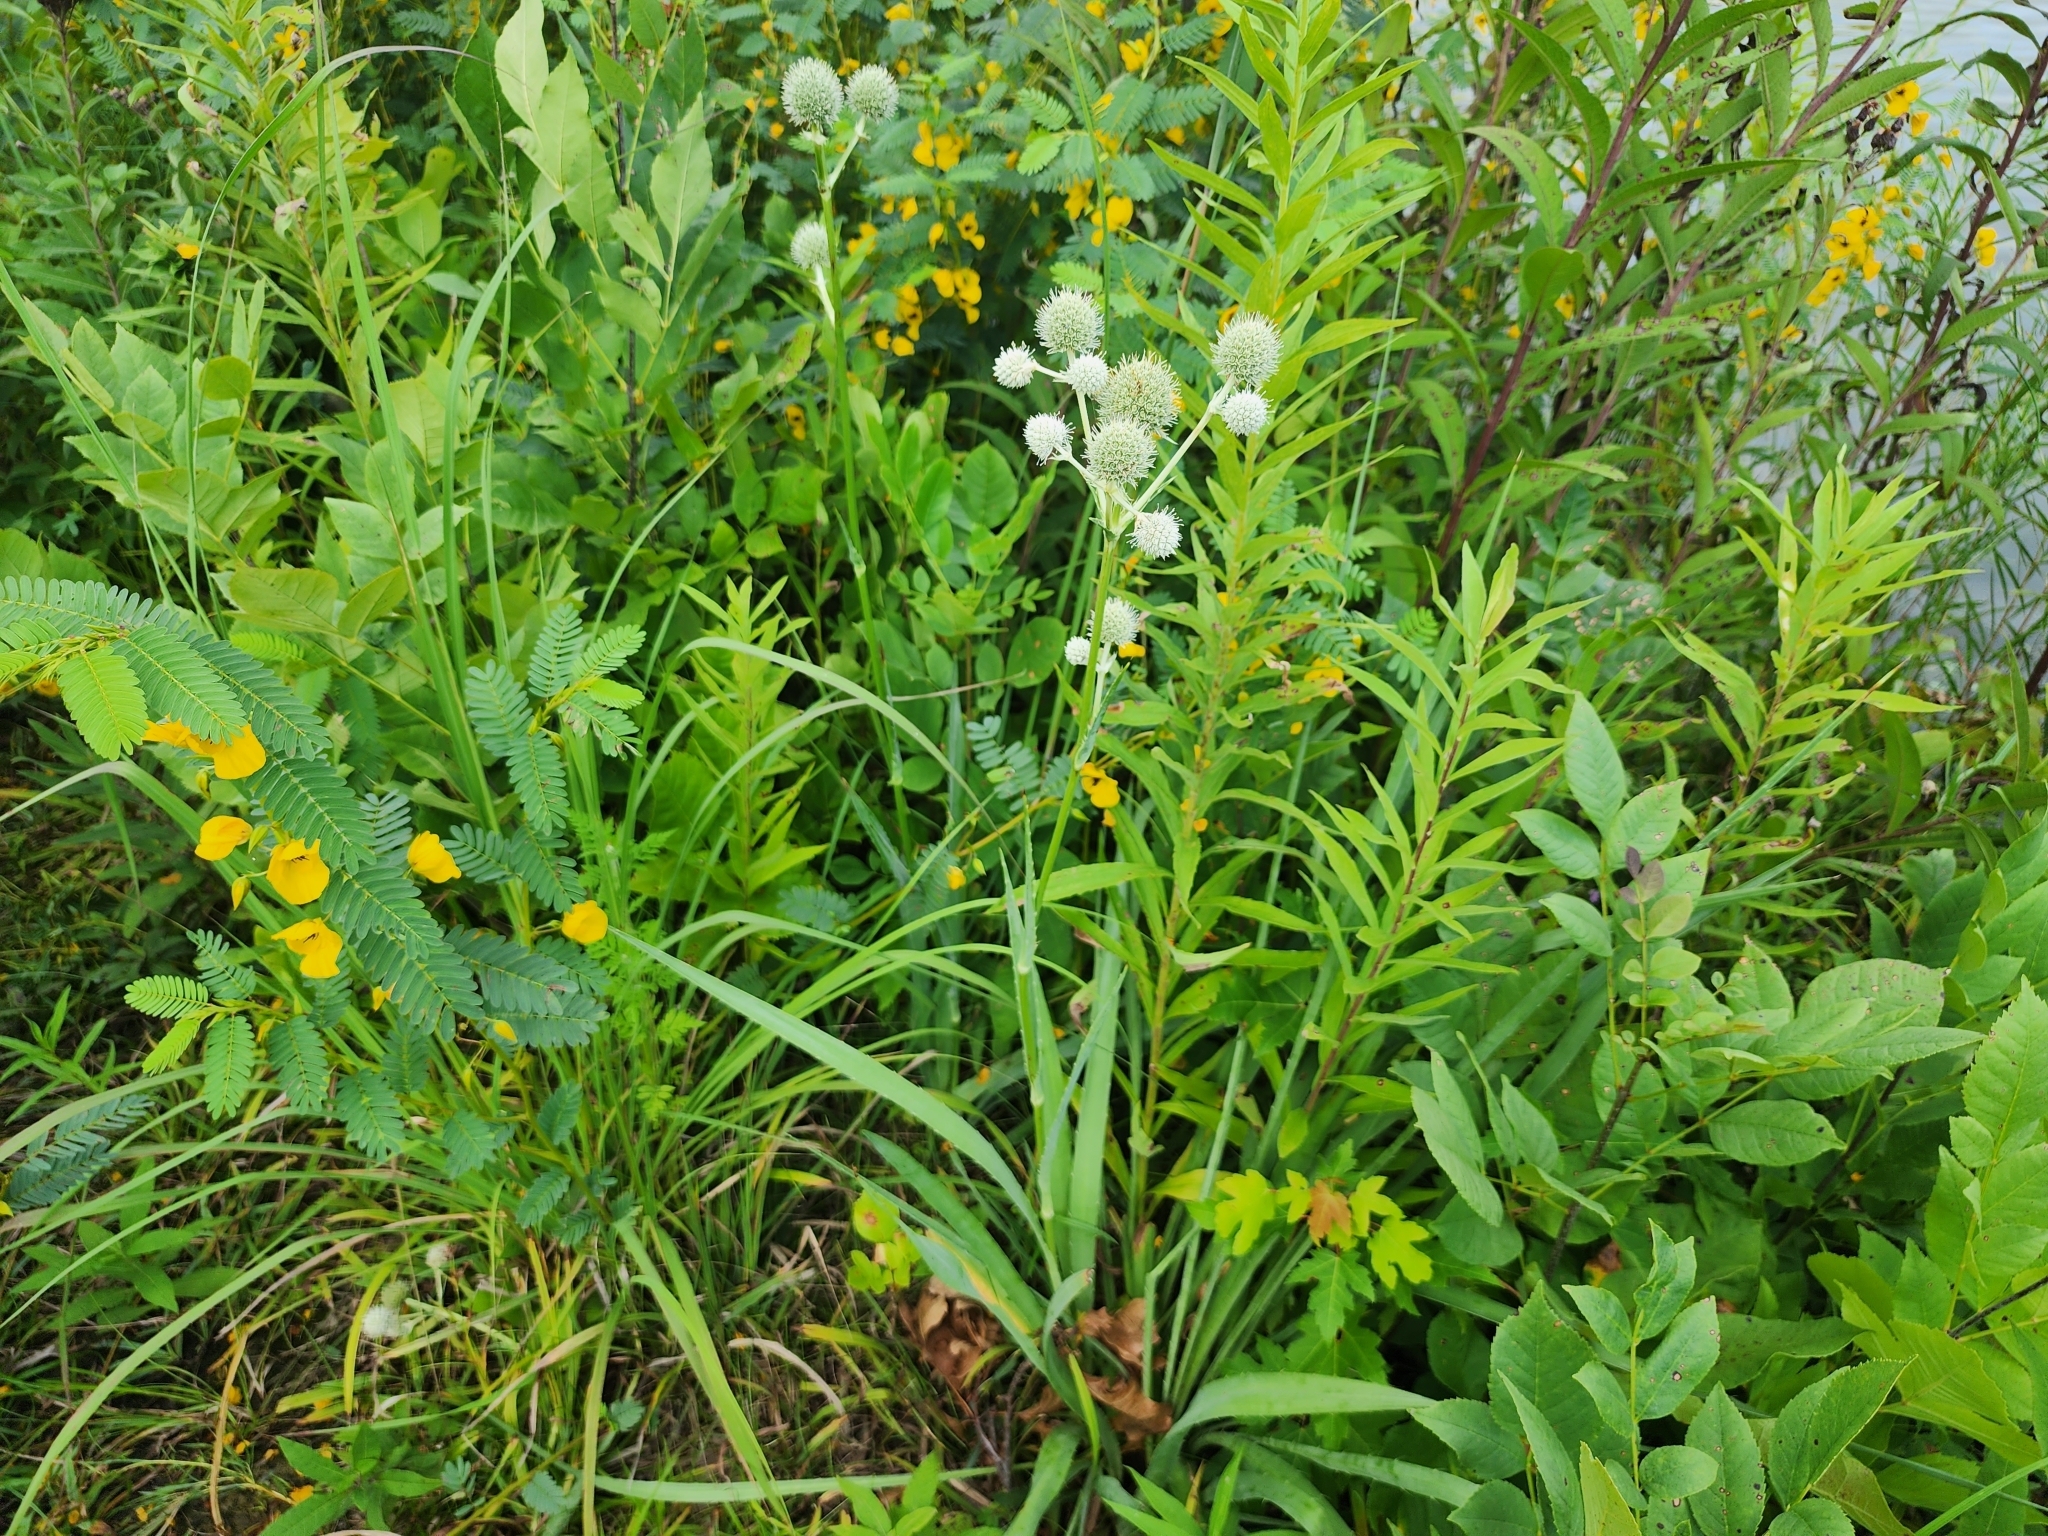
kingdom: Plantae
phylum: Tracheophyta
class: Magnoliopsida
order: Apiales
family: Apiaceae
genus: Eryngium
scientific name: Eryngium yuccifolium
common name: Button eryngo
